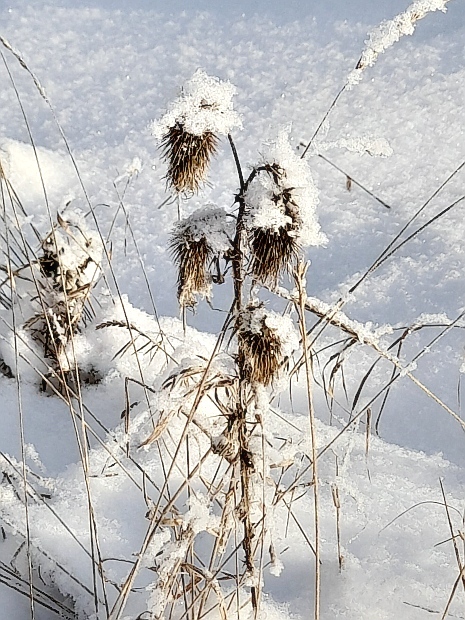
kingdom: Plantae
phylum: Tracheophyta
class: Magnoliopsida
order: Asterales
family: Asteraceae
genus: Cirsium
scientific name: Cirsium vulgare
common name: Bull thistle
